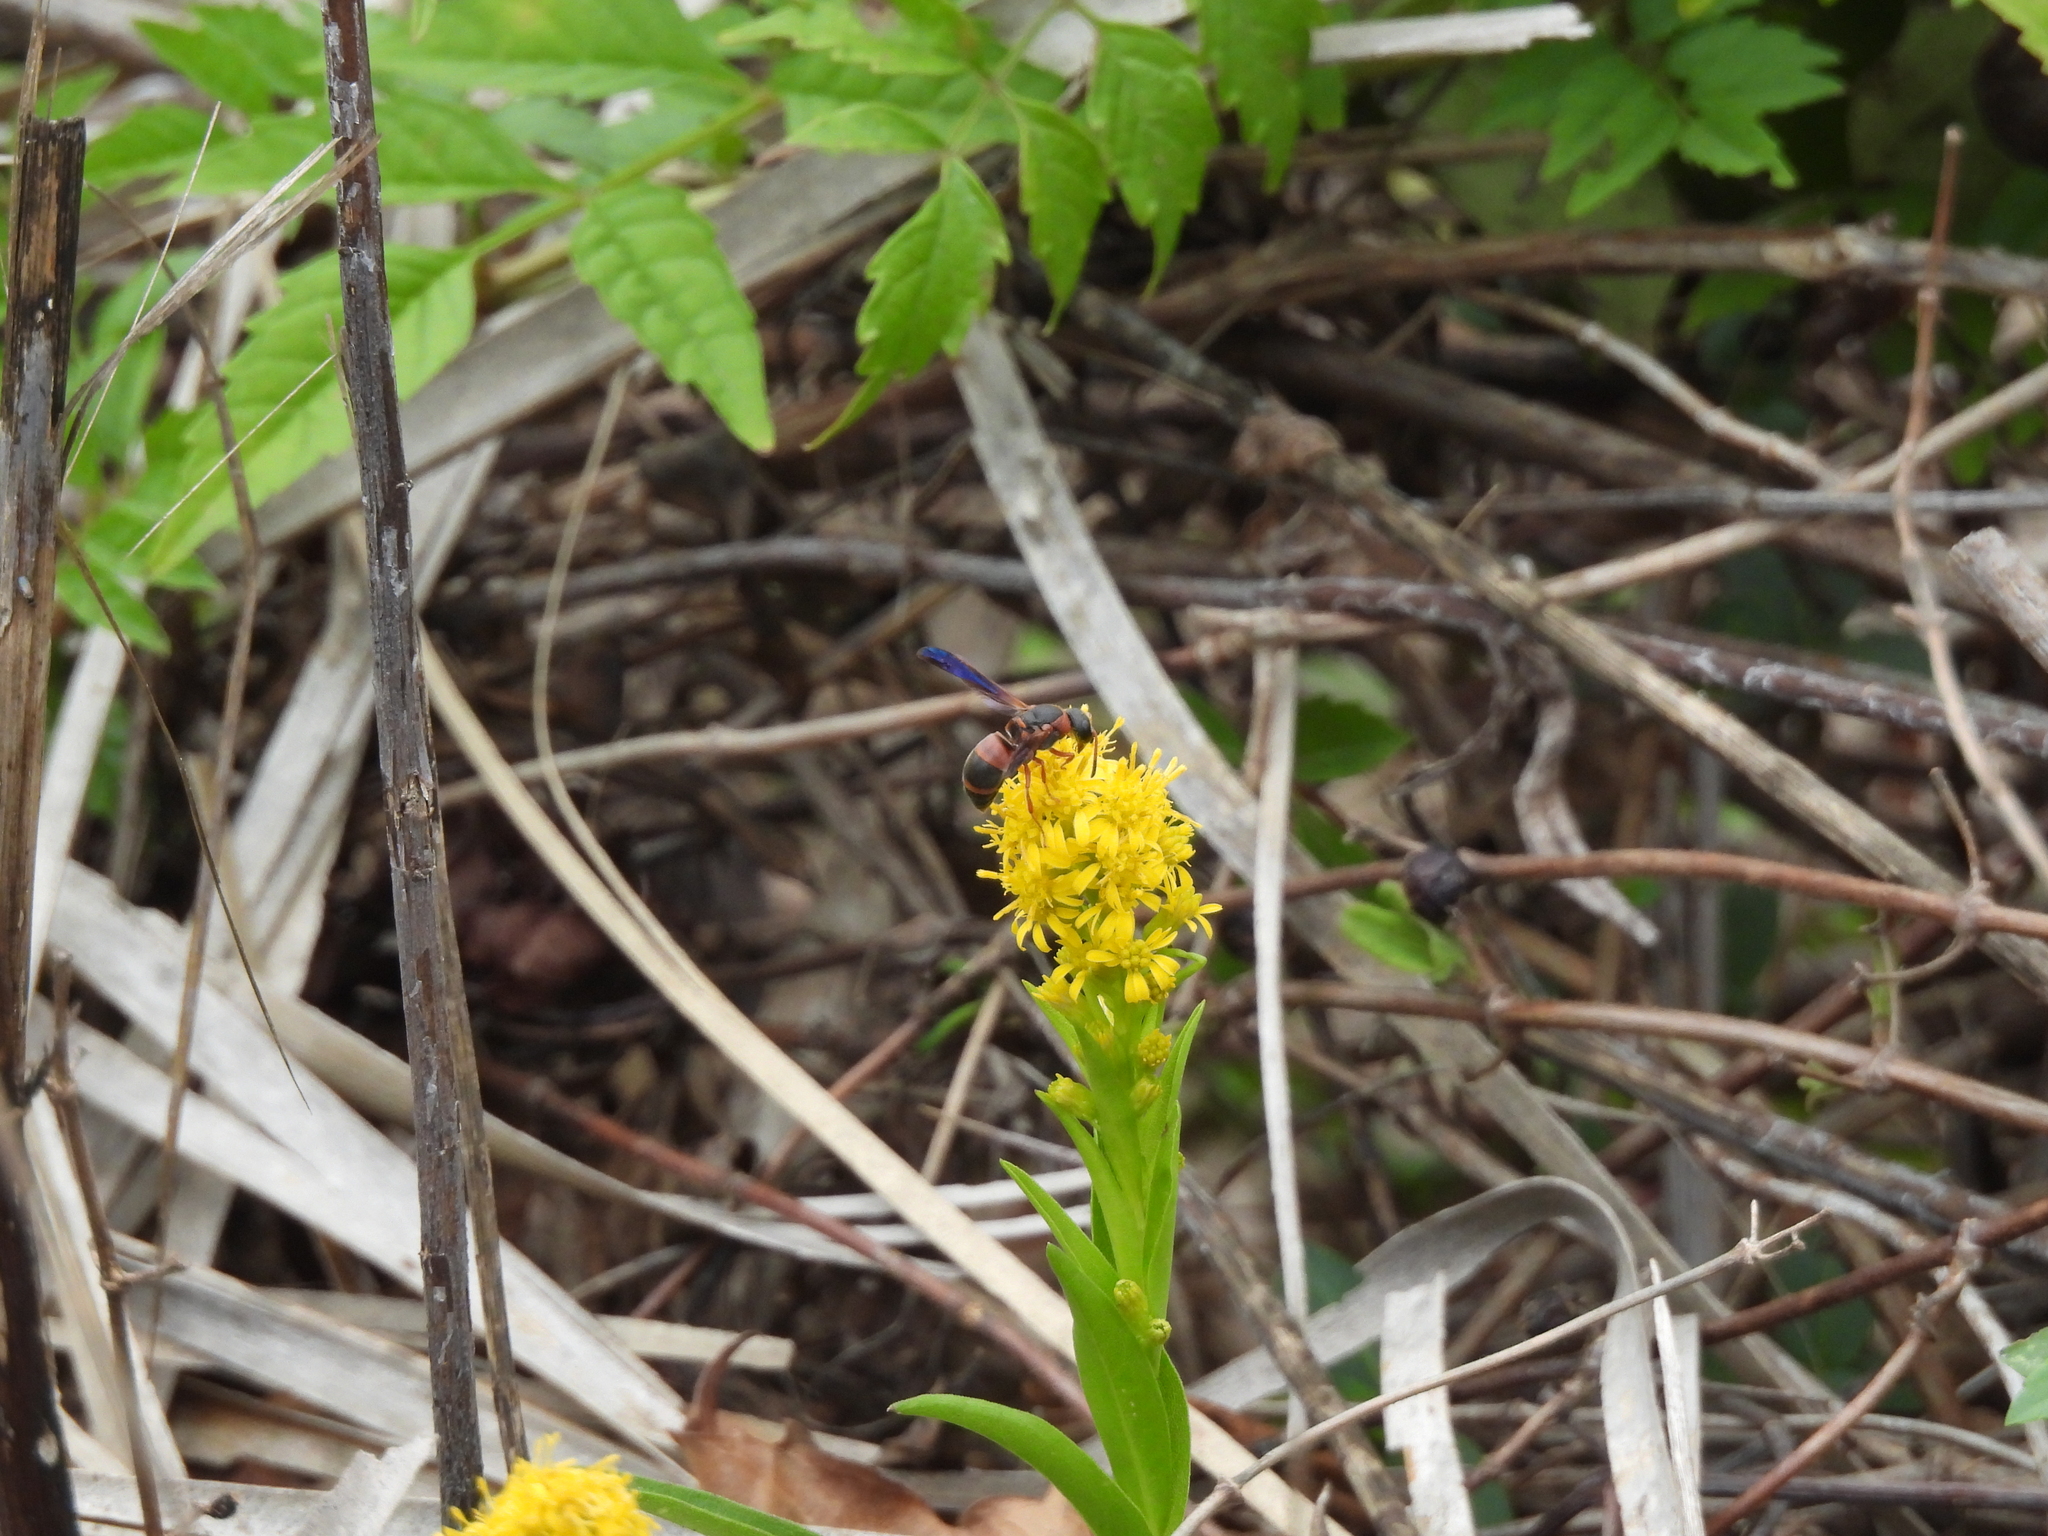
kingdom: Animalia
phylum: Arthropoda
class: Insecta
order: Hymenoptera
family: Eumenidae
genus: Pachodynerus
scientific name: Pachodynerus erynnis
